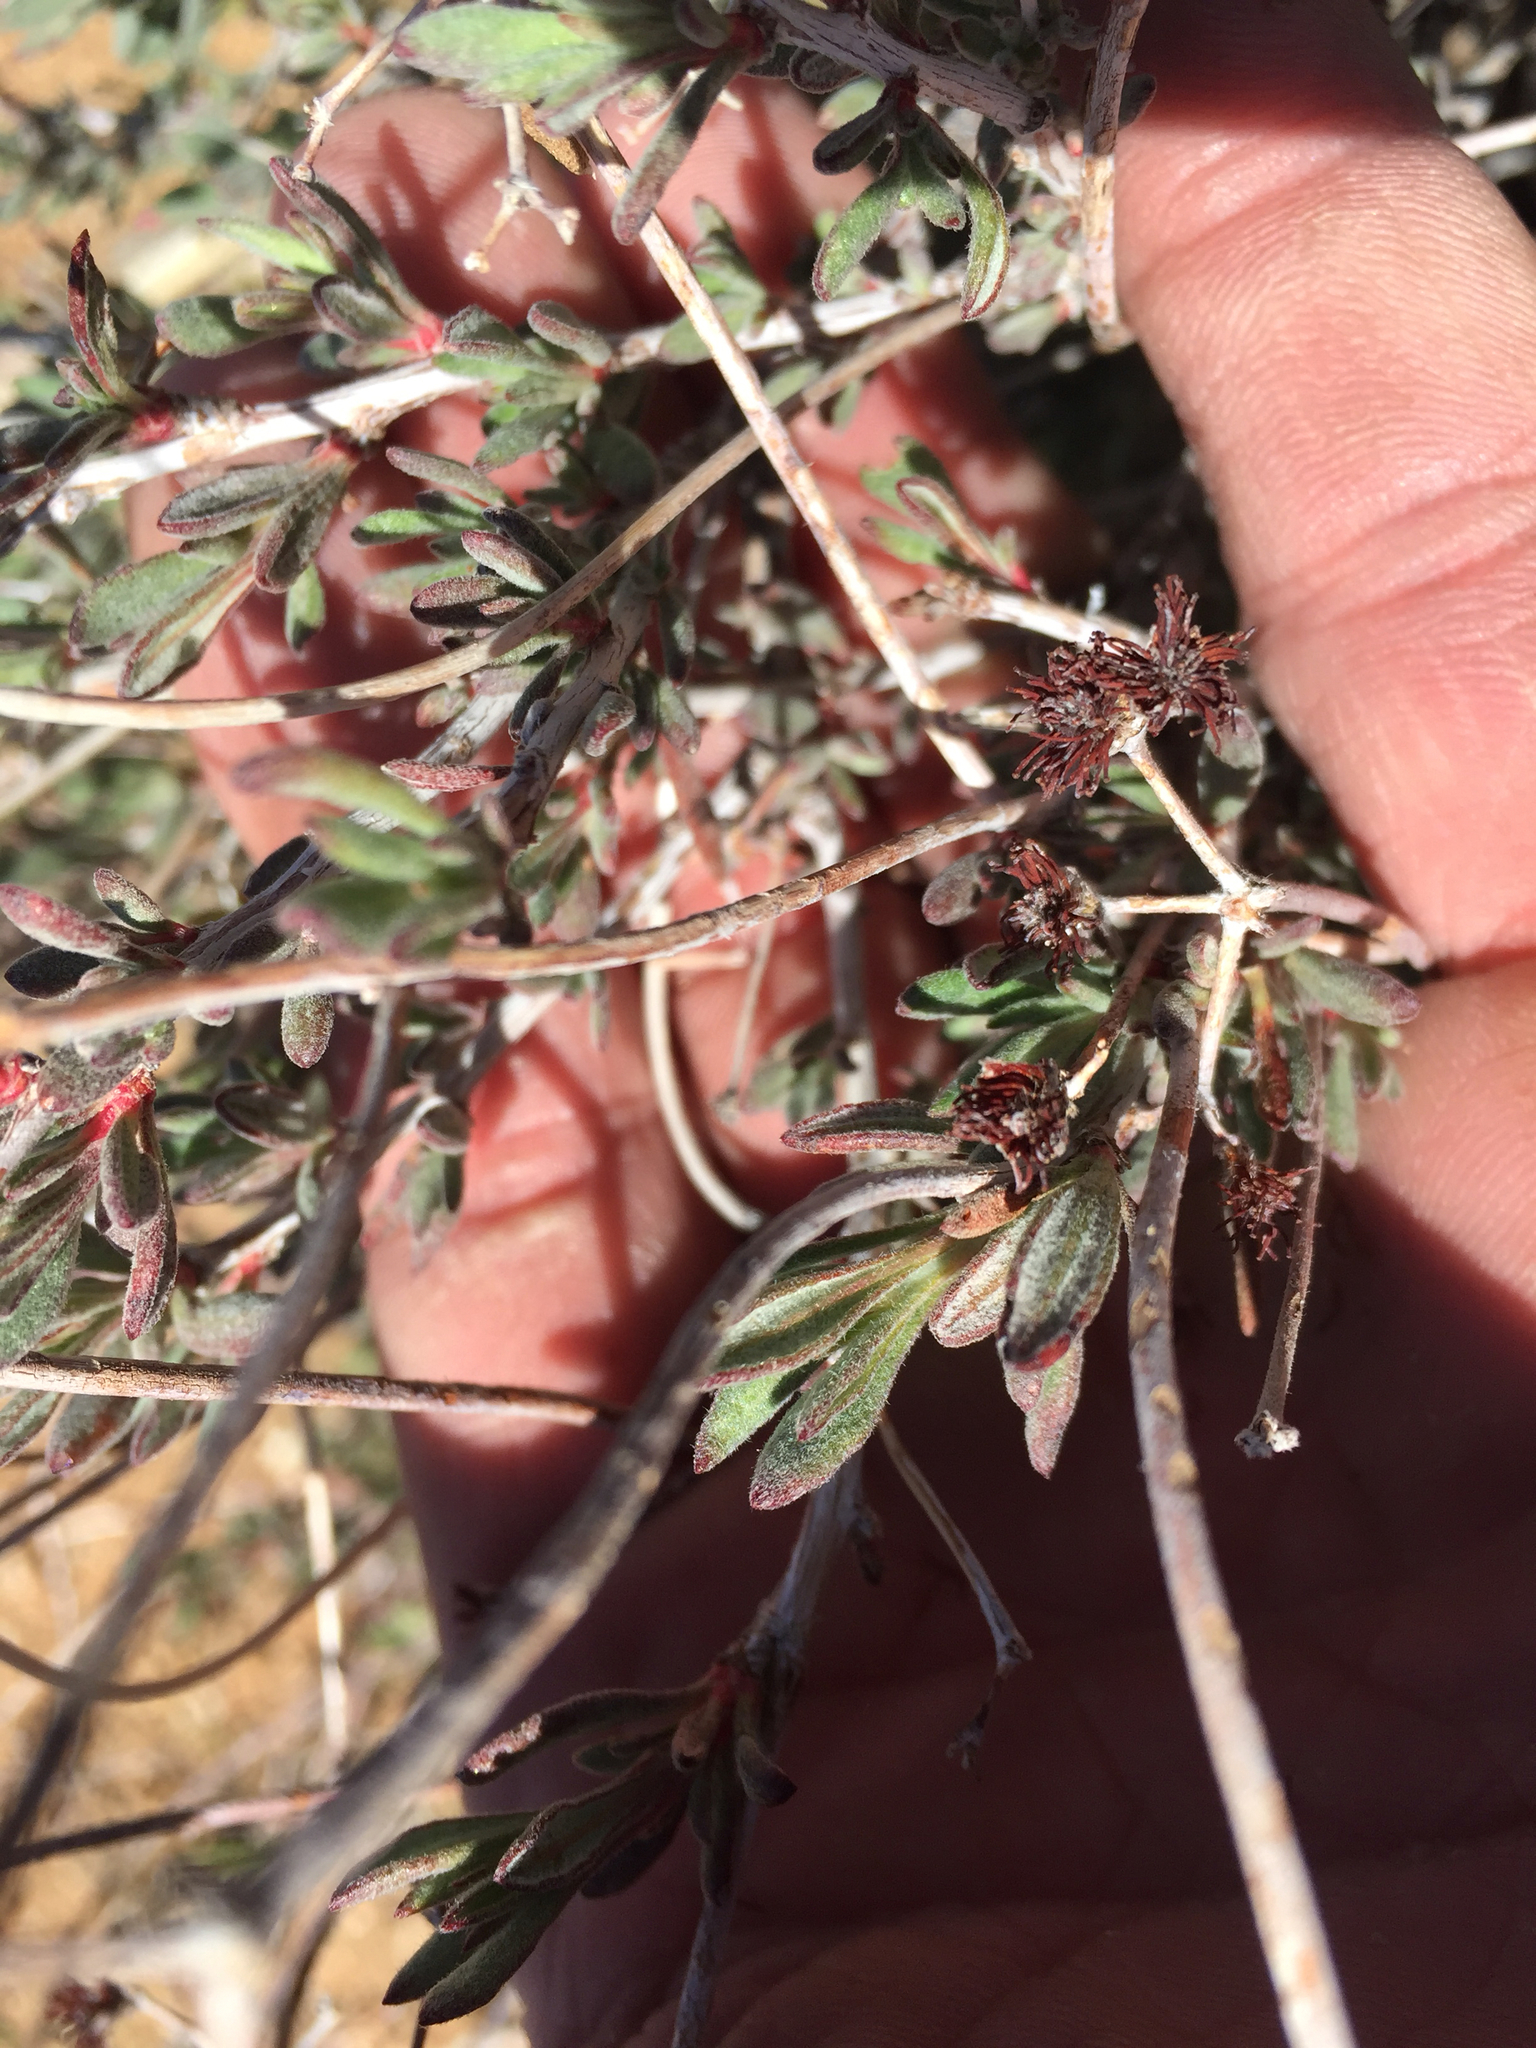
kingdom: Plantae
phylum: Tracheophyta
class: Magnoliopsida
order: Caryophyllales
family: Polygonaceae
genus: Eriogonum
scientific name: Eriogonum fasciculatum
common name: California wild buckwheat
